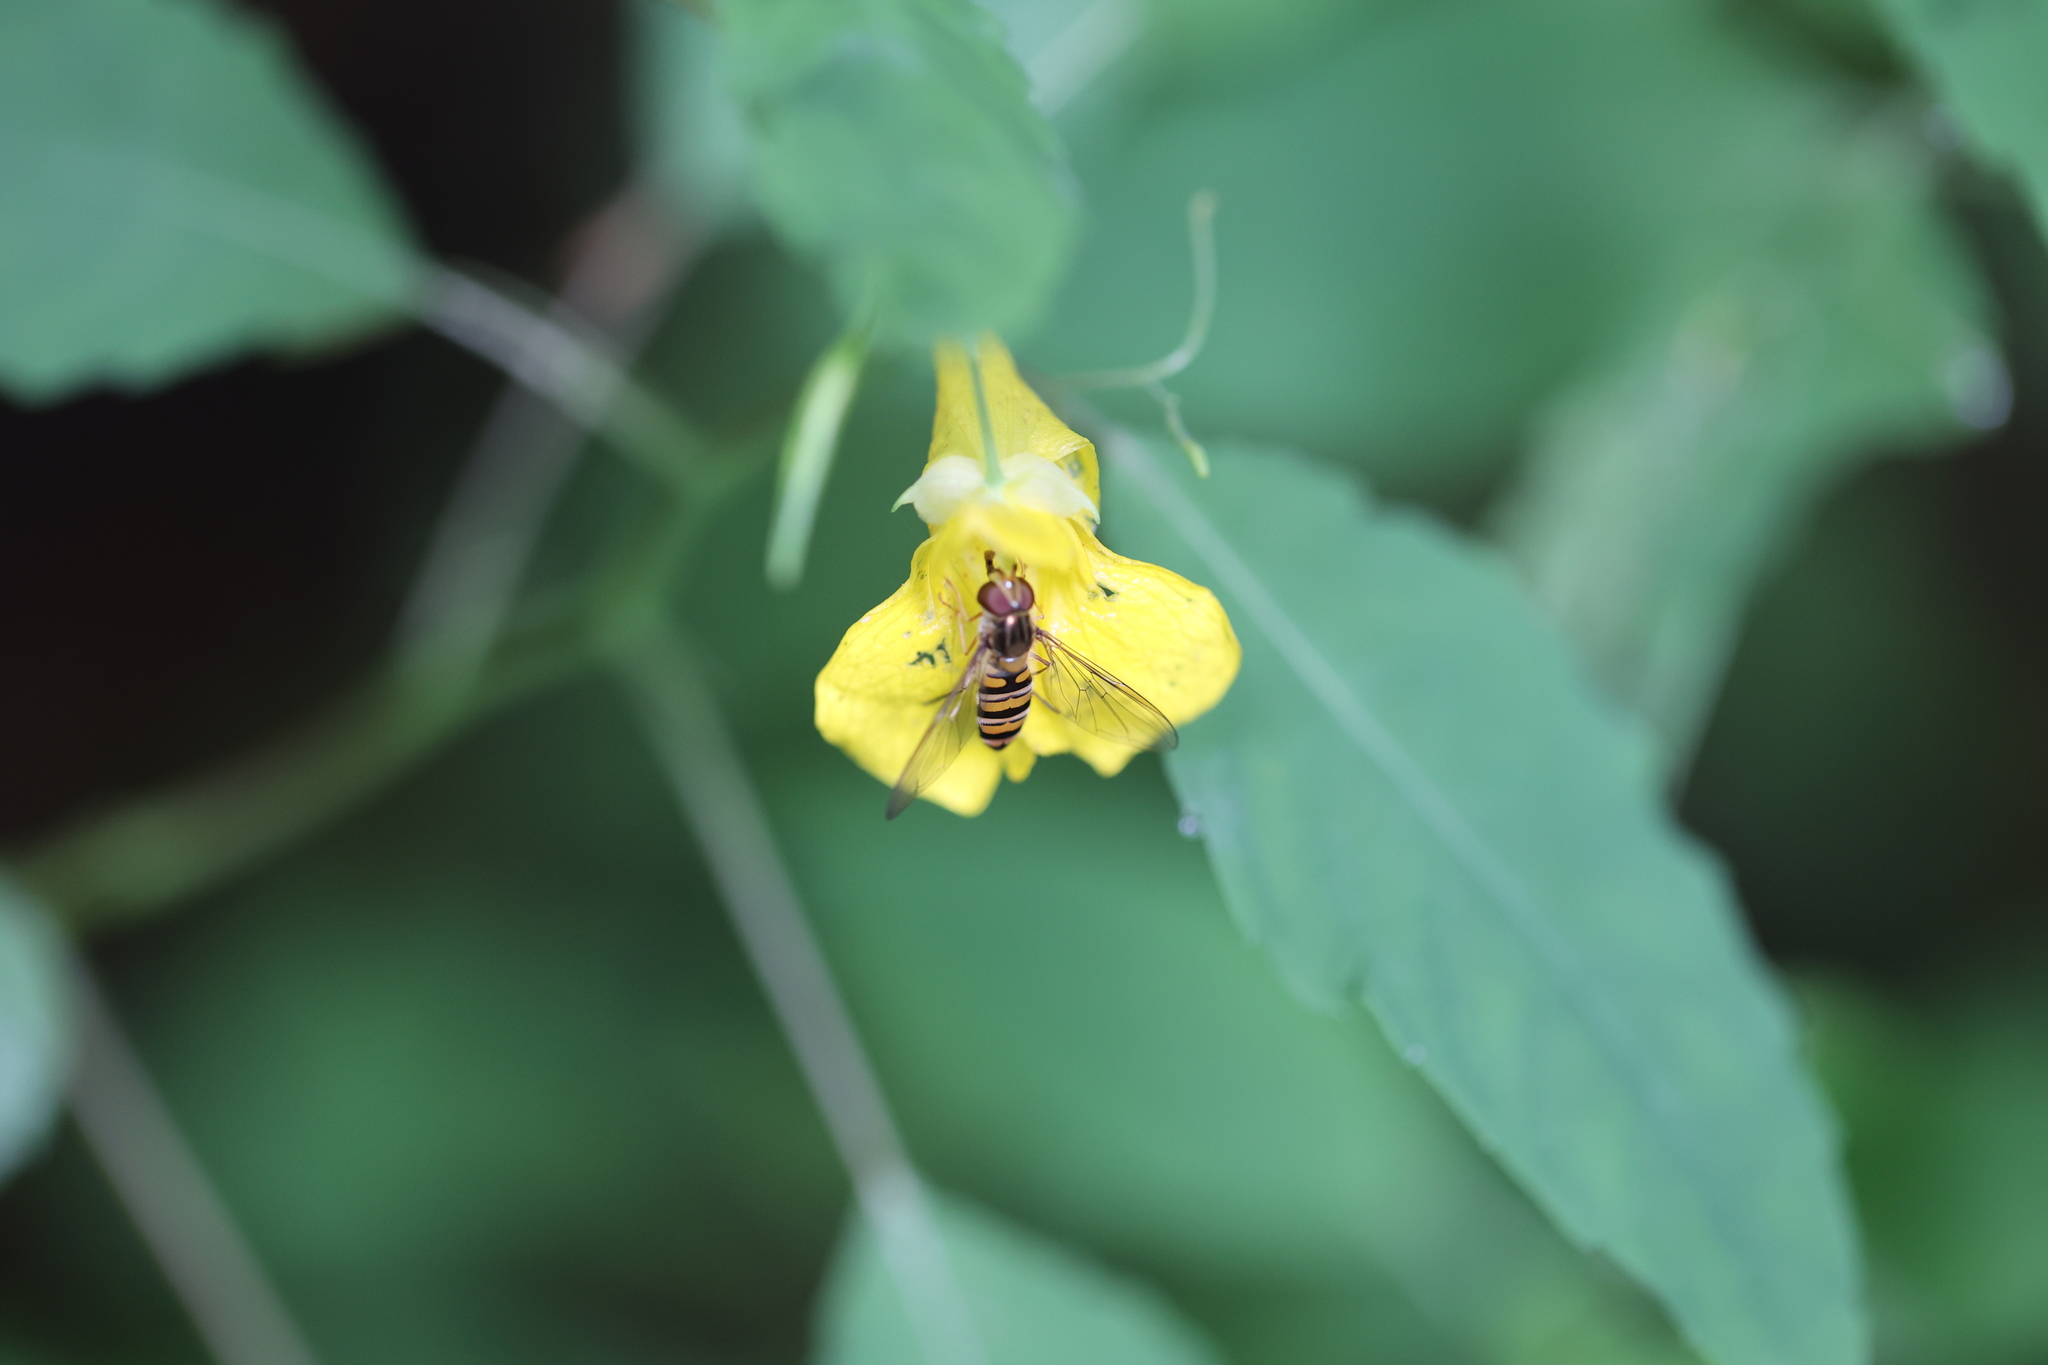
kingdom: Animalia
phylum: Arthropoda
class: Insecta
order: Diptera
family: Syrphidae
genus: Episyrphus
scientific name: Episyrphus balteatus
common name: Marmalade hoverfly
